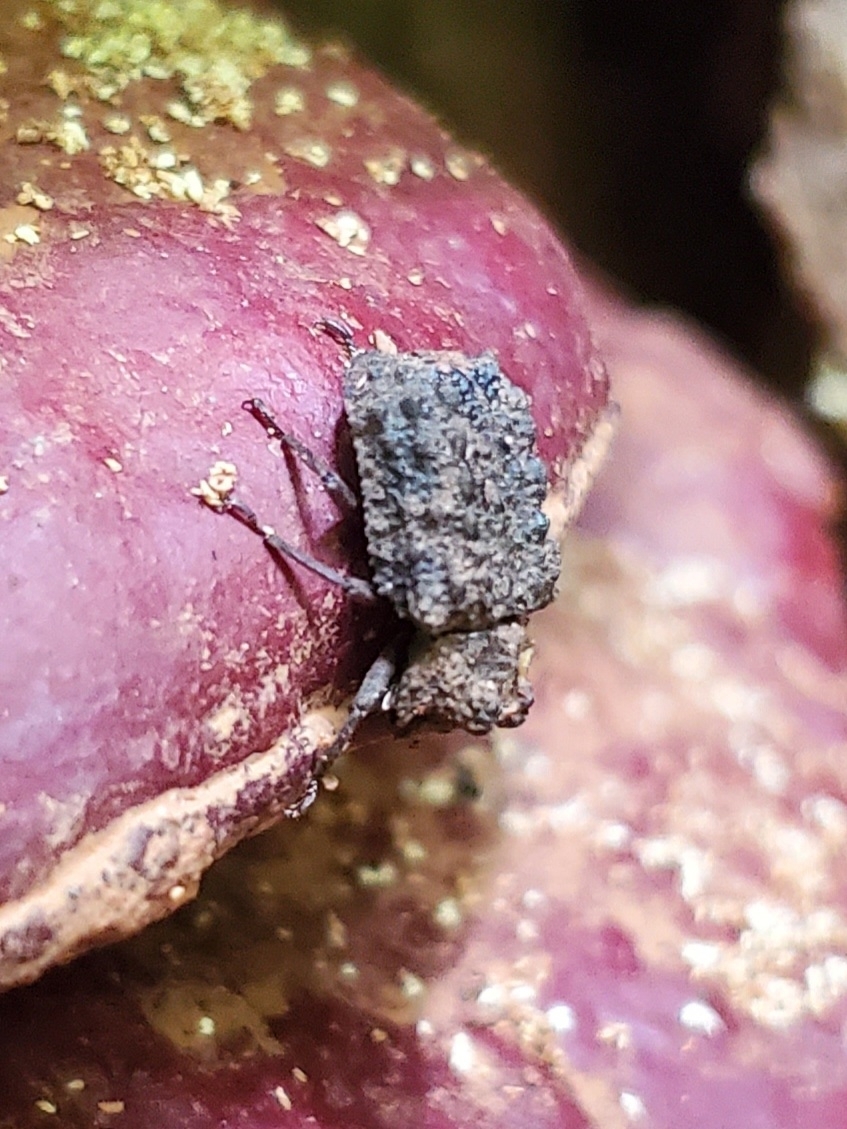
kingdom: Animalia
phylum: Arthropoda
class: Insecta
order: Coleoptera
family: Tenebrionidae
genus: Gnatocerus
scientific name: Gnatocerus cornutus
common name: Broad-horned flour beetle
